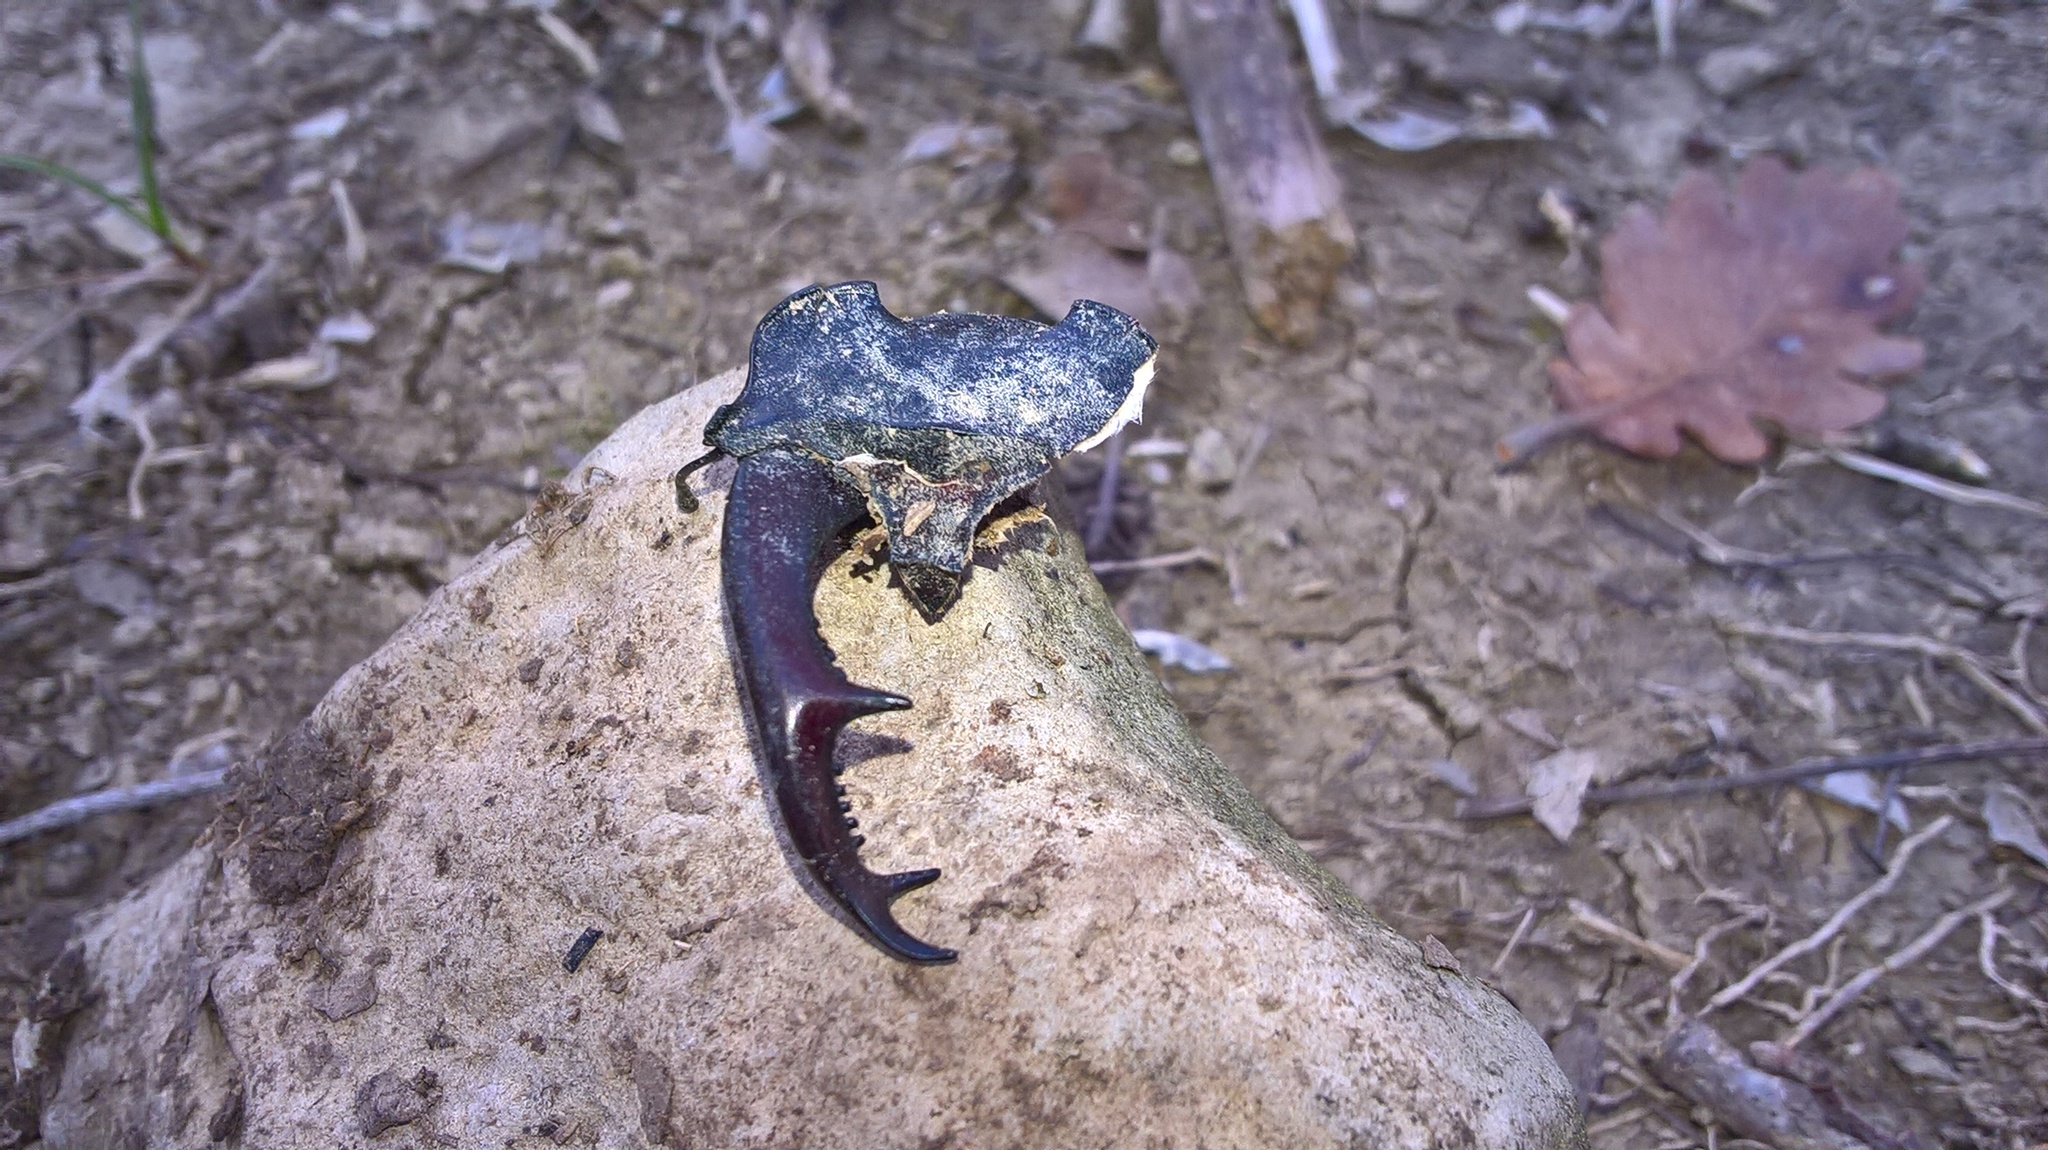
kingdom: Animalia
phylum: Arthropoda
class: Insecta
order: Coleoptera
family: Lucanidae
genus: Lucanus
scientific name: Lucanus cervus
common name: Stag beetle
